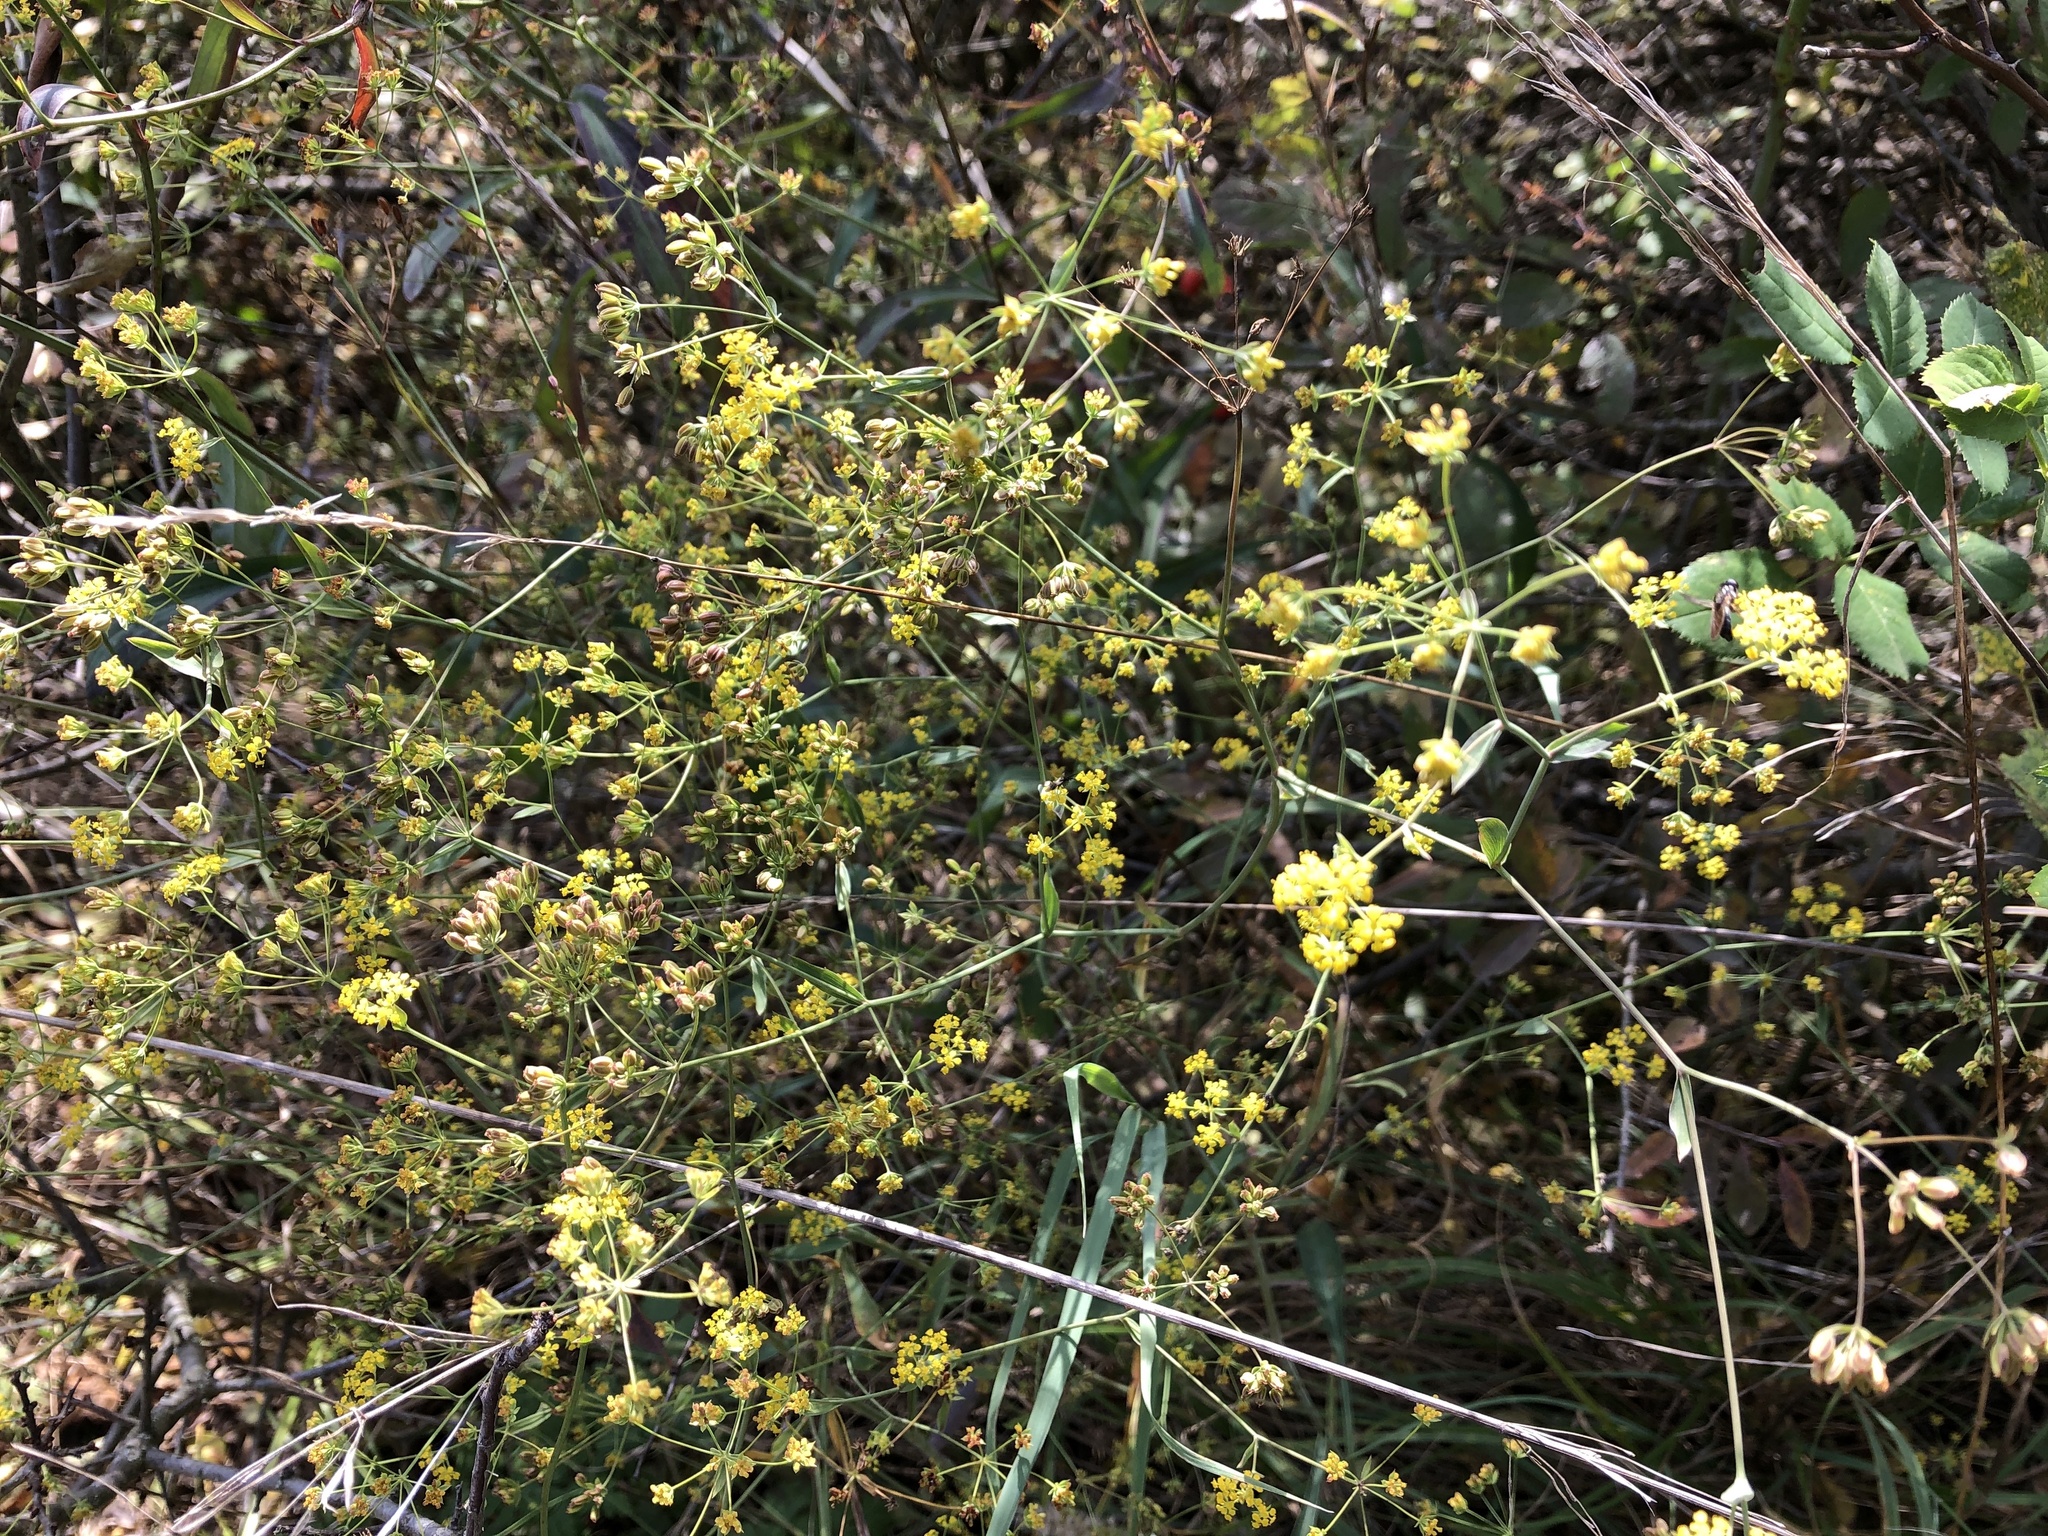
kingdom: Plantae
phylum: Tracheophyta
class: Magnoliopsida
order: Apiales
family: Apiaceae
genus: Bupleurum
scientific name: Bupleurum falcatum
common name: Sickle-leaved hare's-ear
